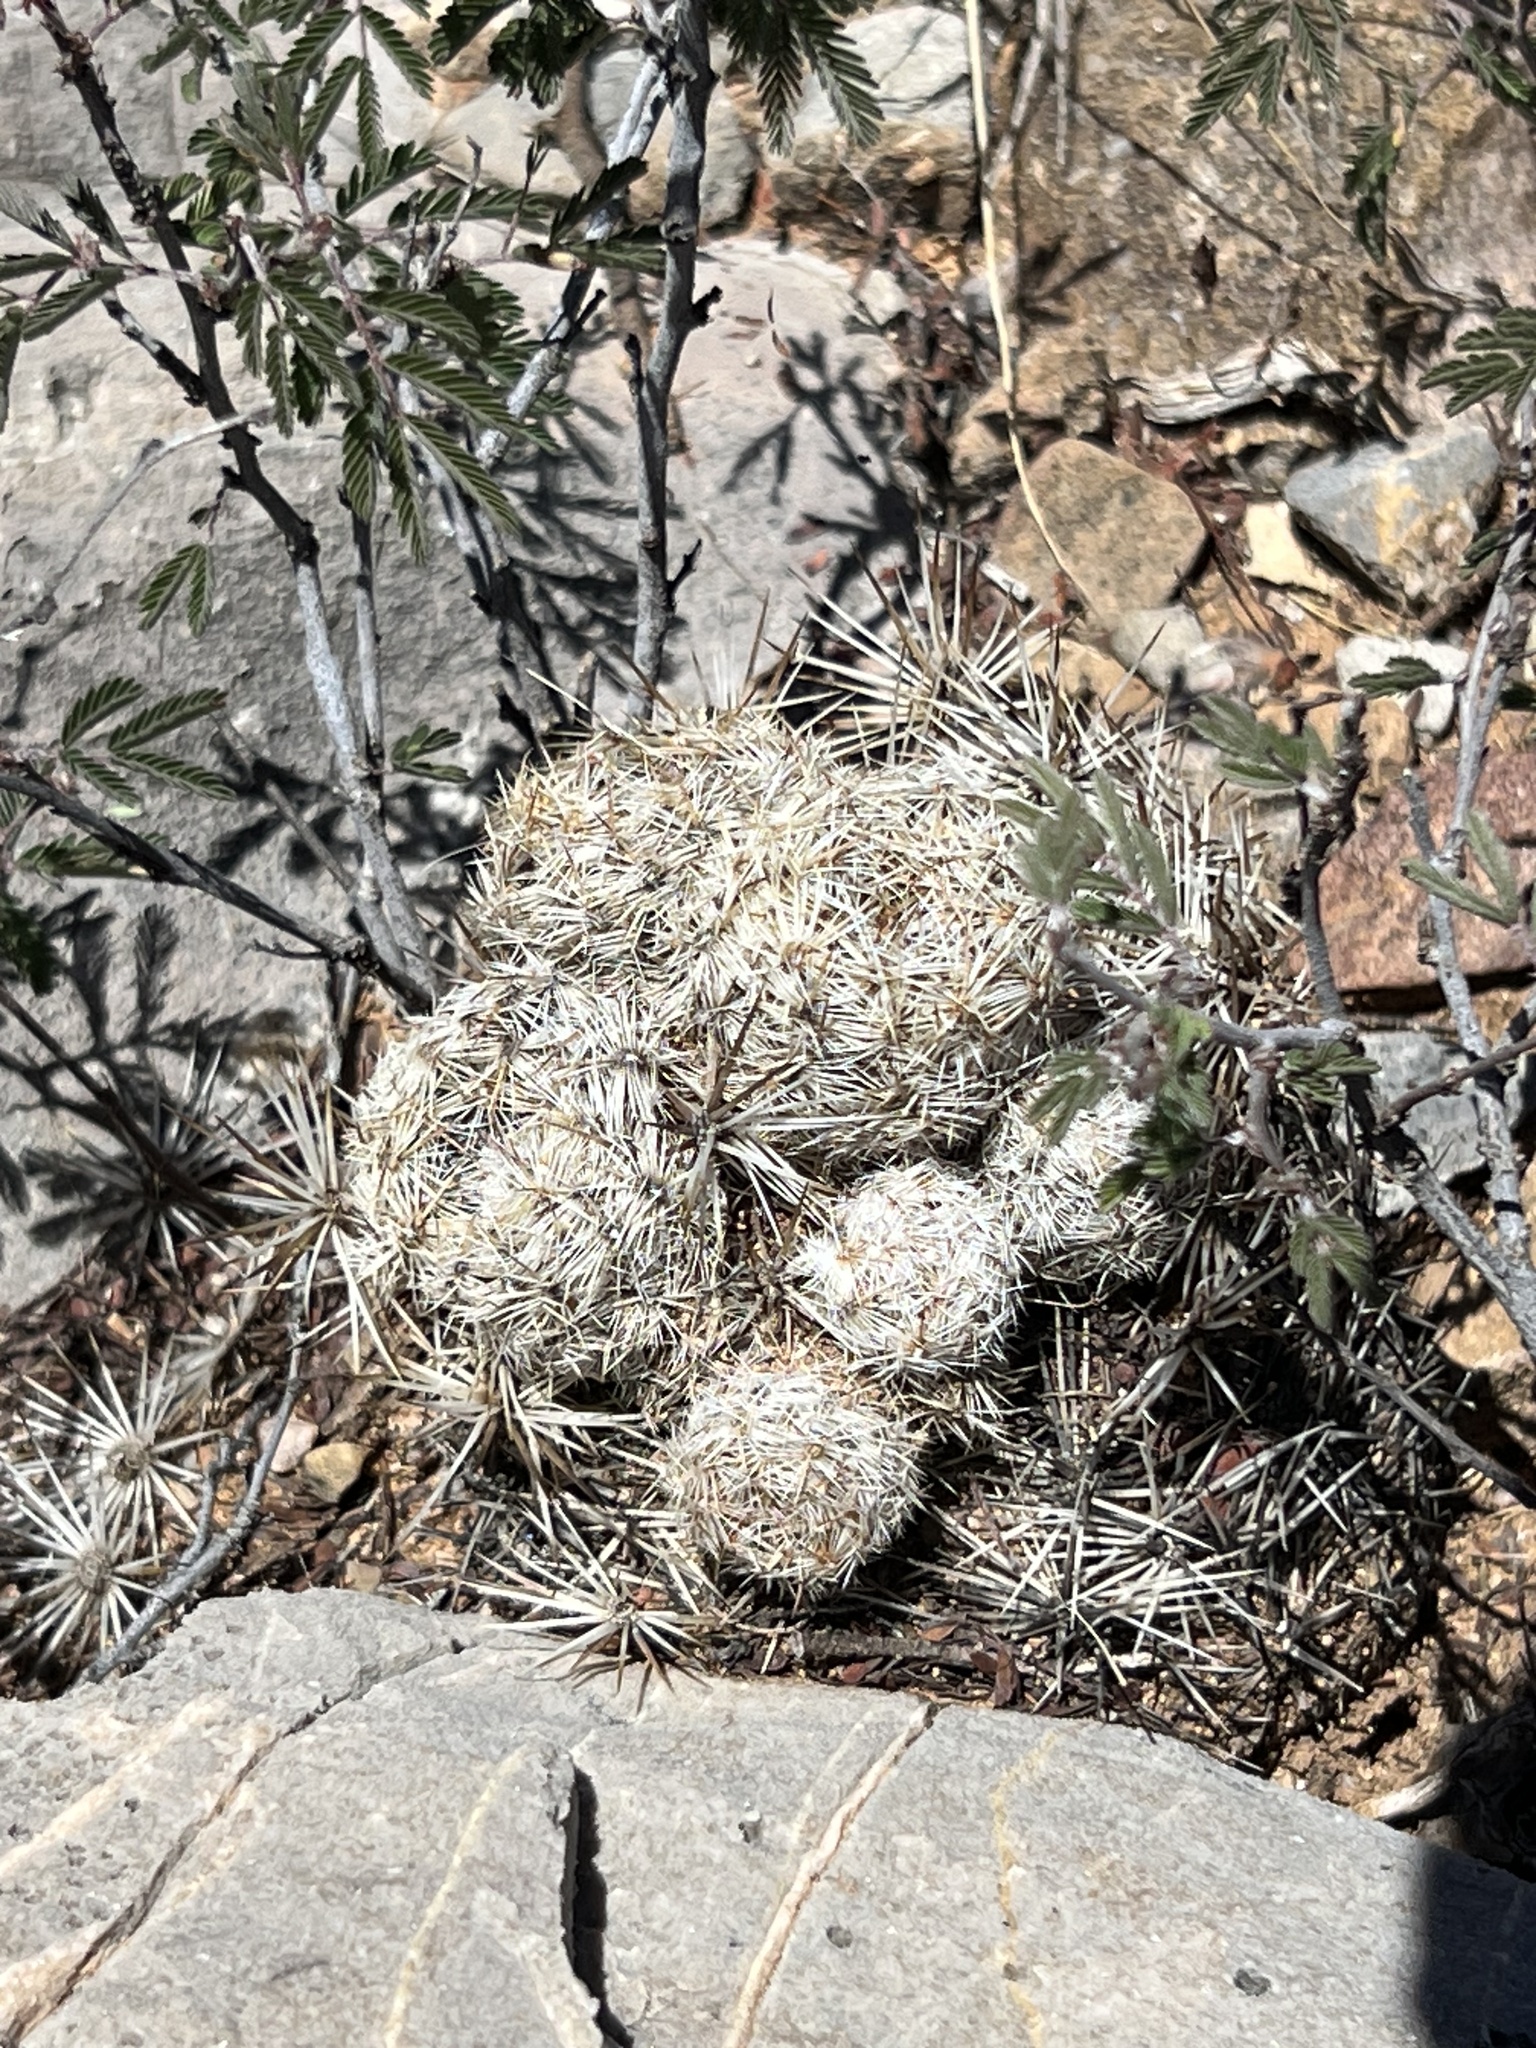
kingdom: Plantae
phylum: Tracheophyta
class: Magnoliopsida
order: Caryophyllales
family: Cactaceae
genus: Pelecyphora
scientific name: Pelecyphora vivipara
